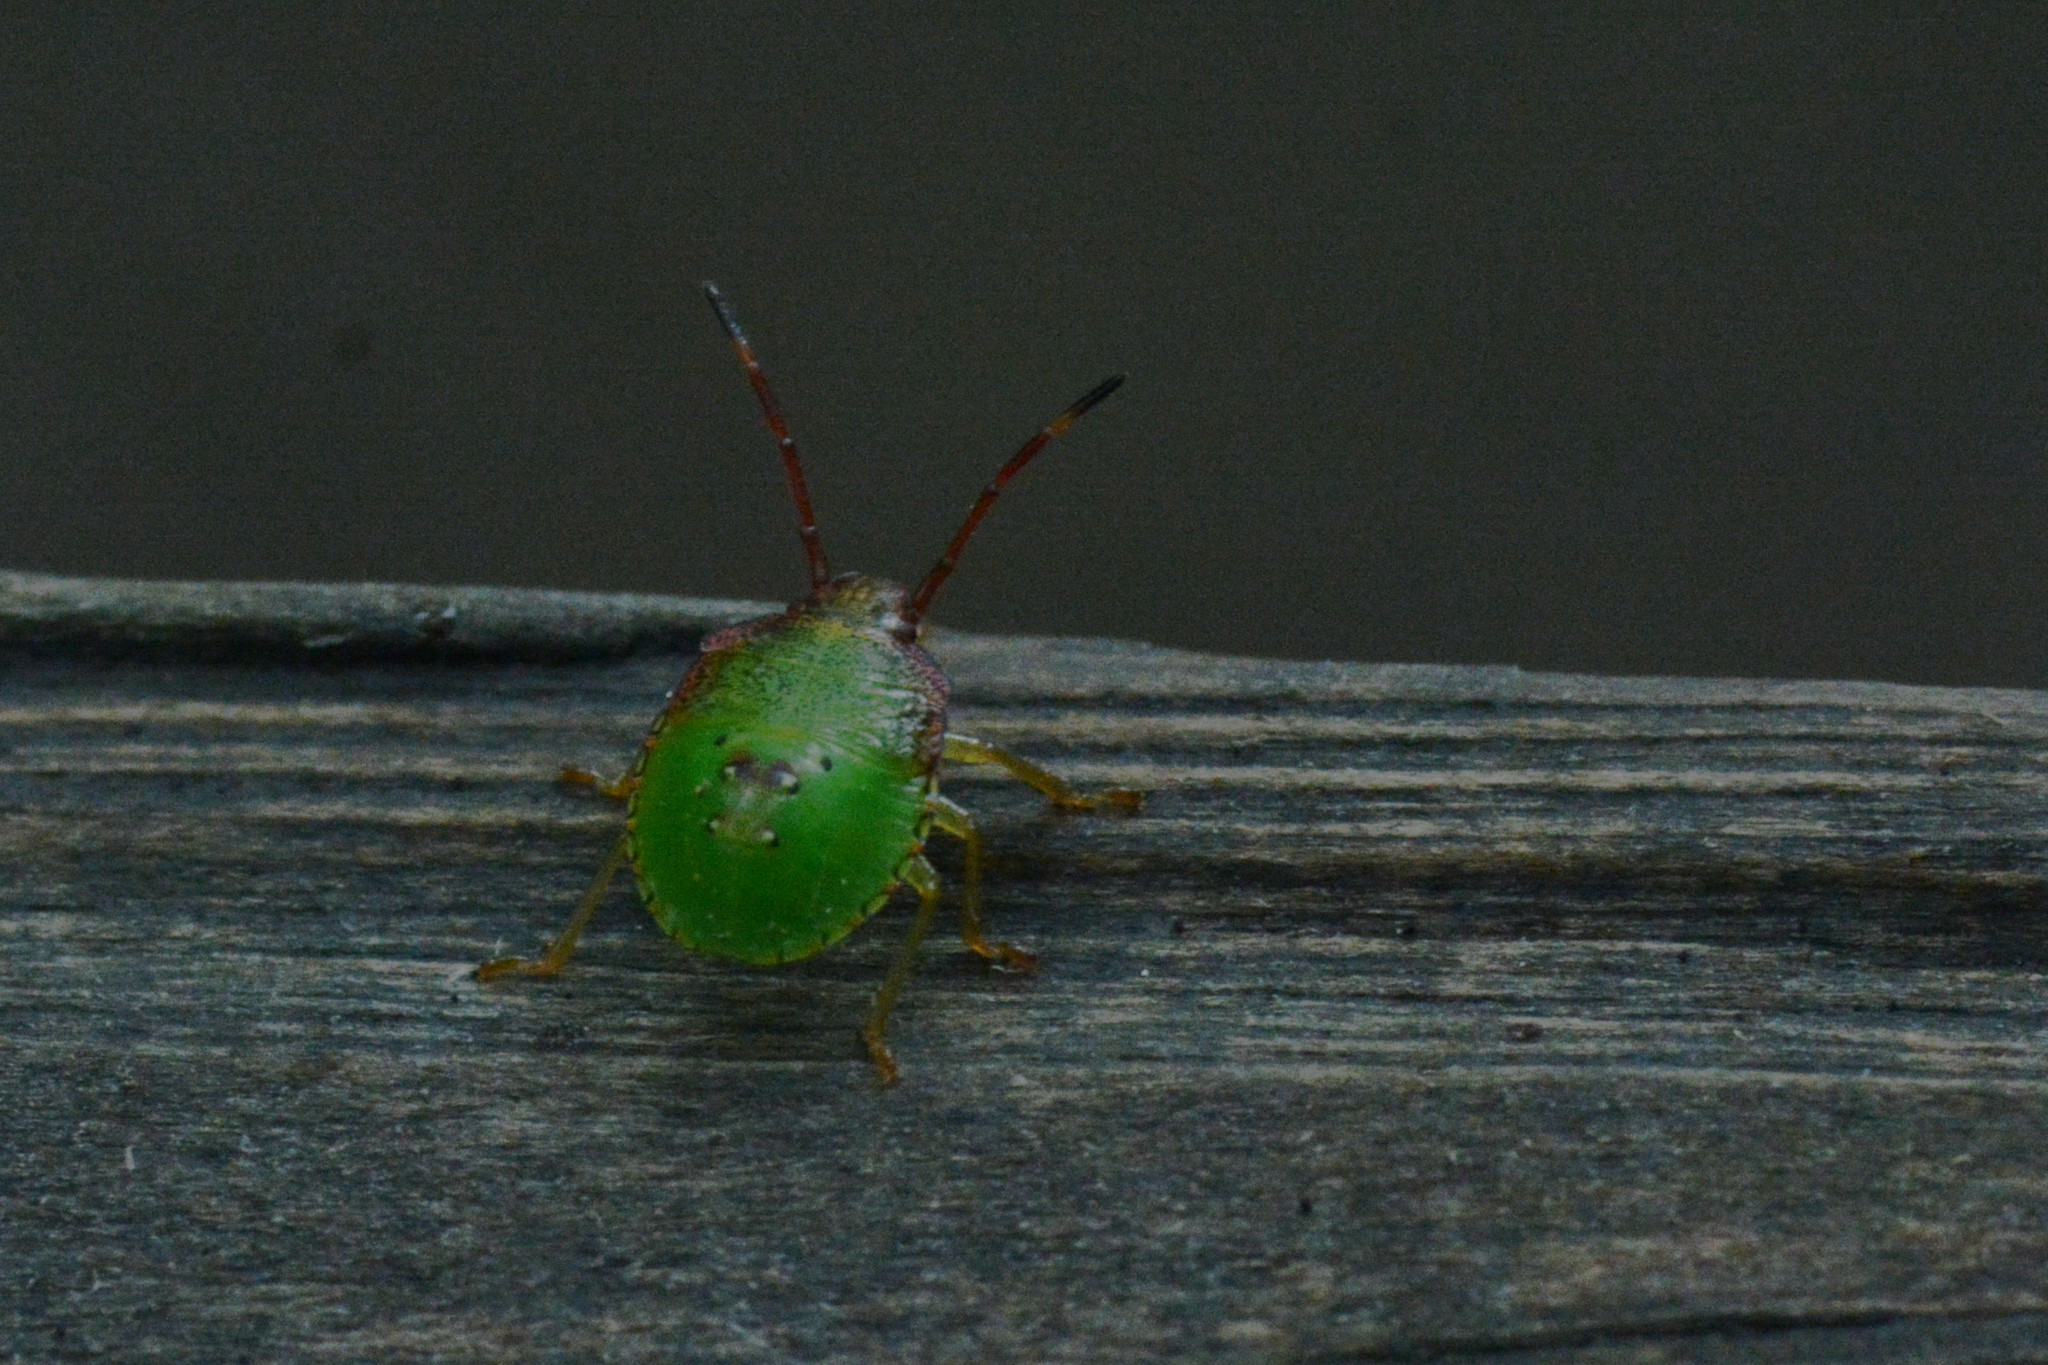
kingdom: Animalia
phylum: Arthropoda
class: Insecta
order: Hemiptera
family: Acanthosomatidae
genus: Acanthosoma
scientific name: Acanthosoma haemorrhoidale
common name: Hawthorn shieldbug
